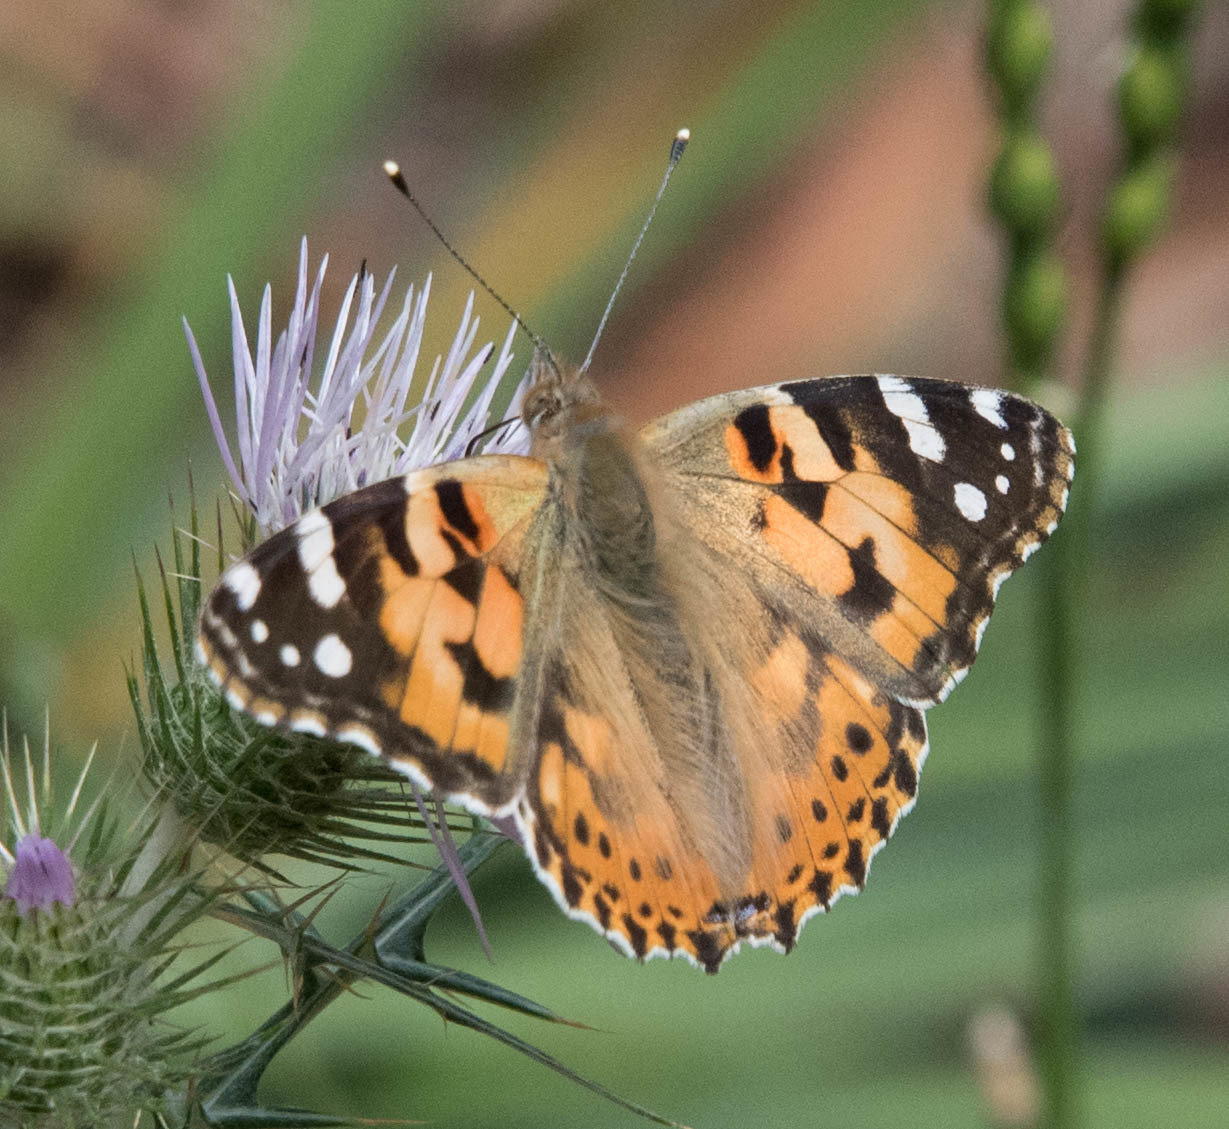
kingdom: Animalia
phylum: Arthropoda
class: Insecta
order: Lepidoptera
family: Nymphalidae
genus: Vanessa
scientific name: Vanessa cardui
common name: Painted lady
